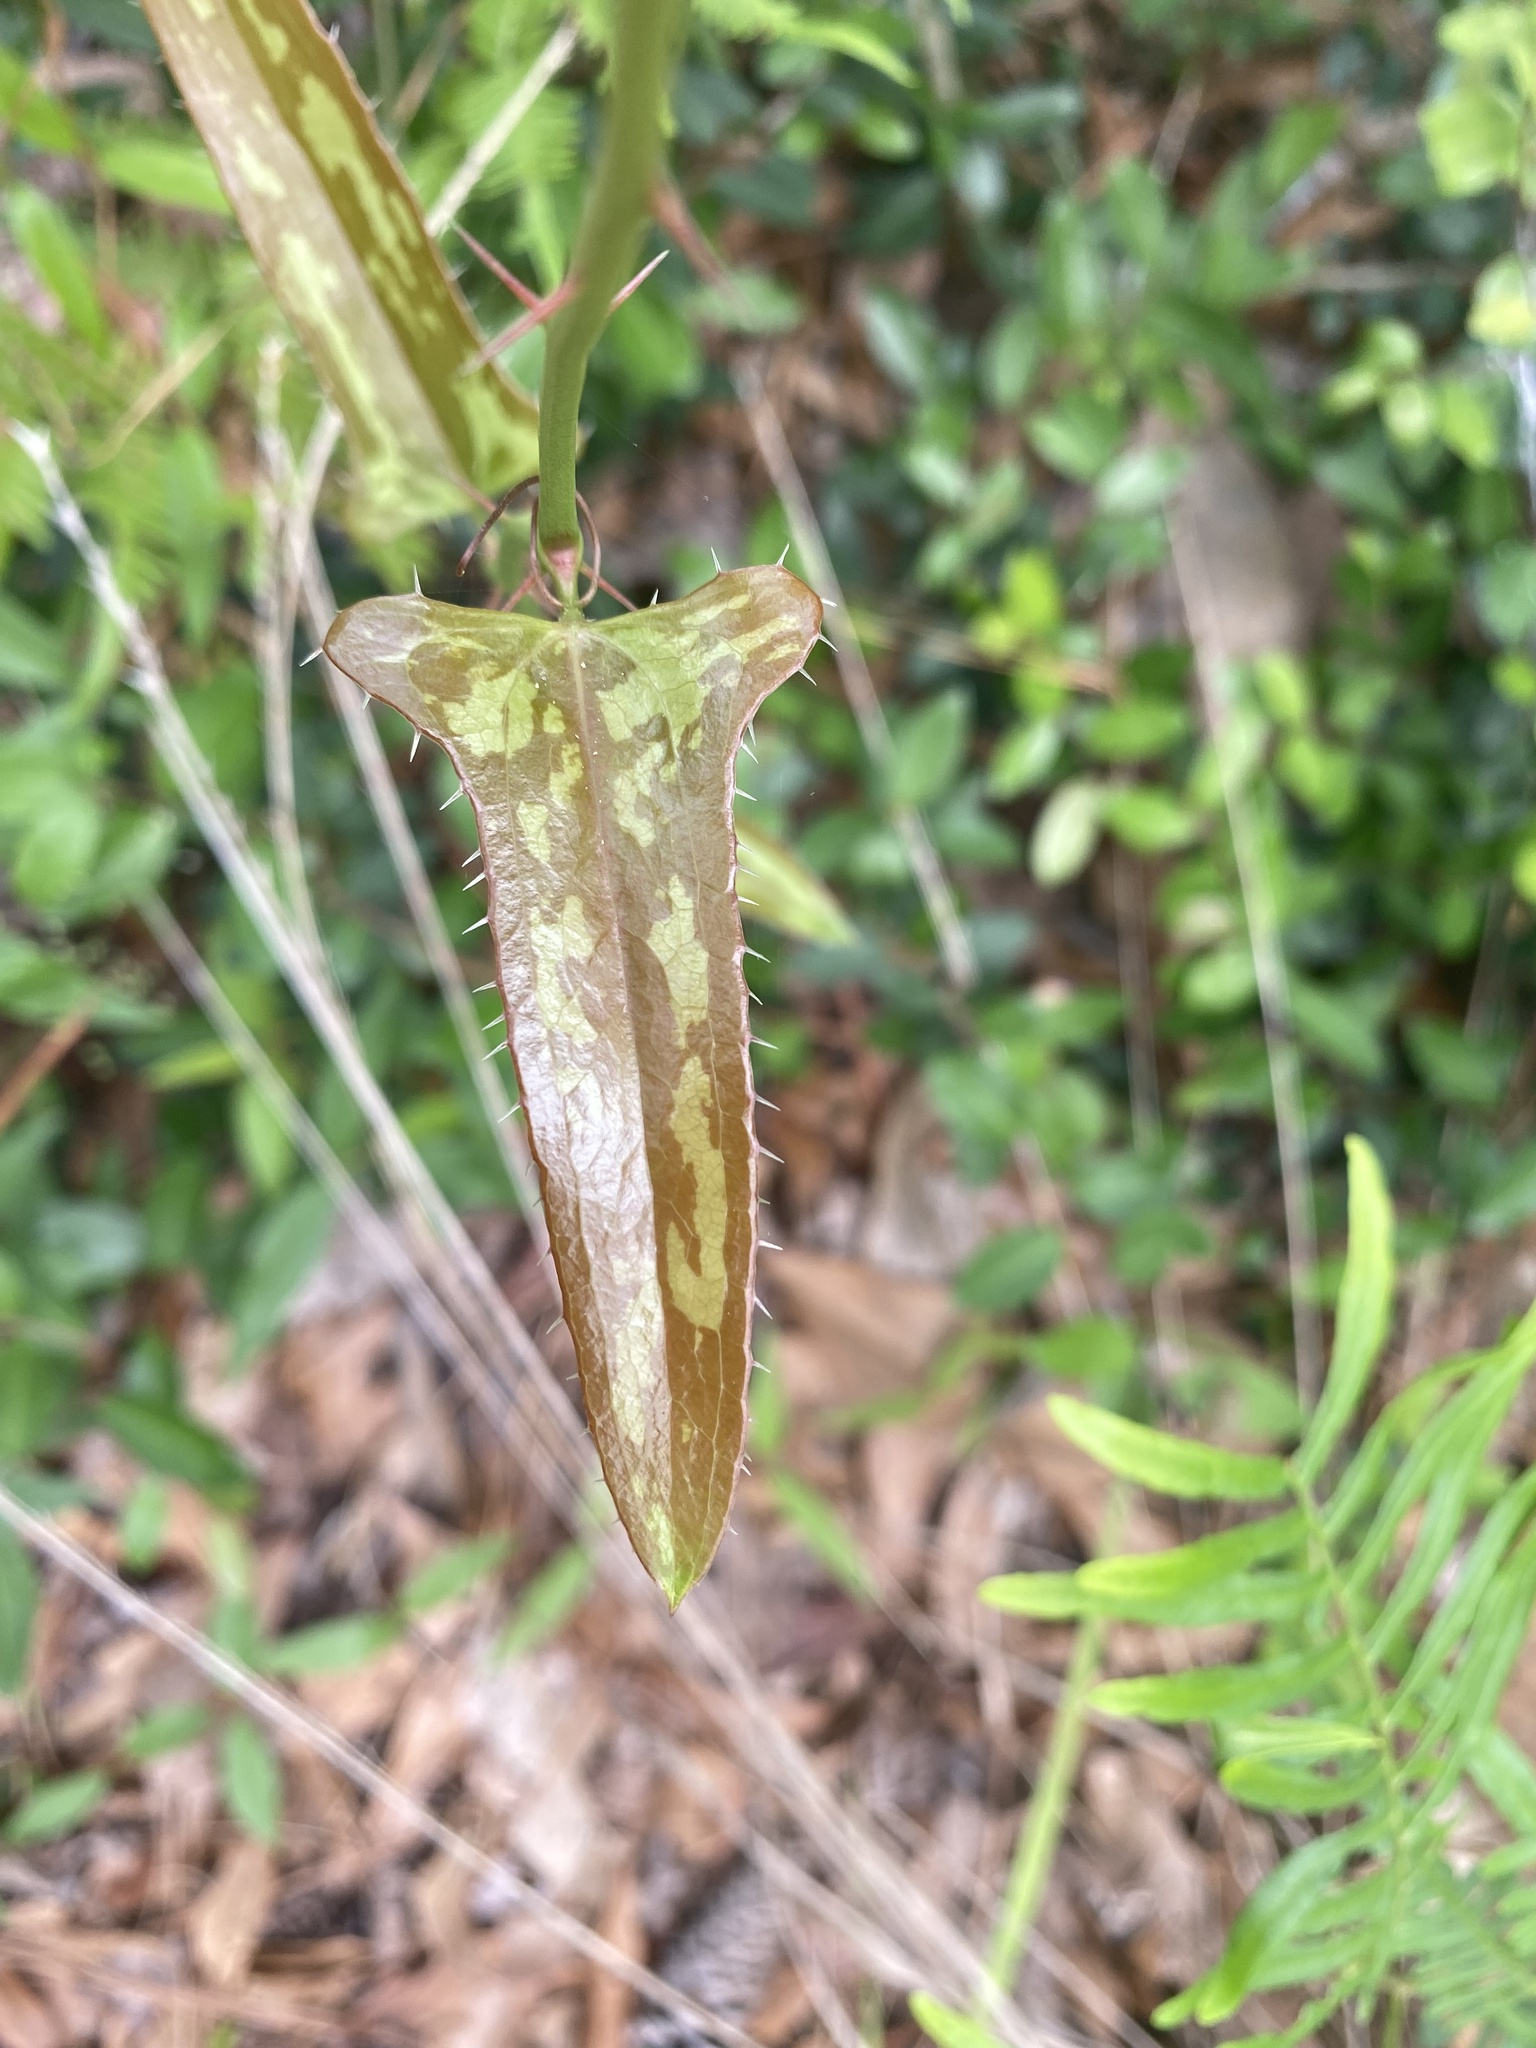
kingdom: Plantae
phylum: Tracheophyta
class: Liliopsida
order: Liliales
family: Smilacaceae
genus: Smilax
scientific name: Smilax bona-nox
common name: Catbrier
